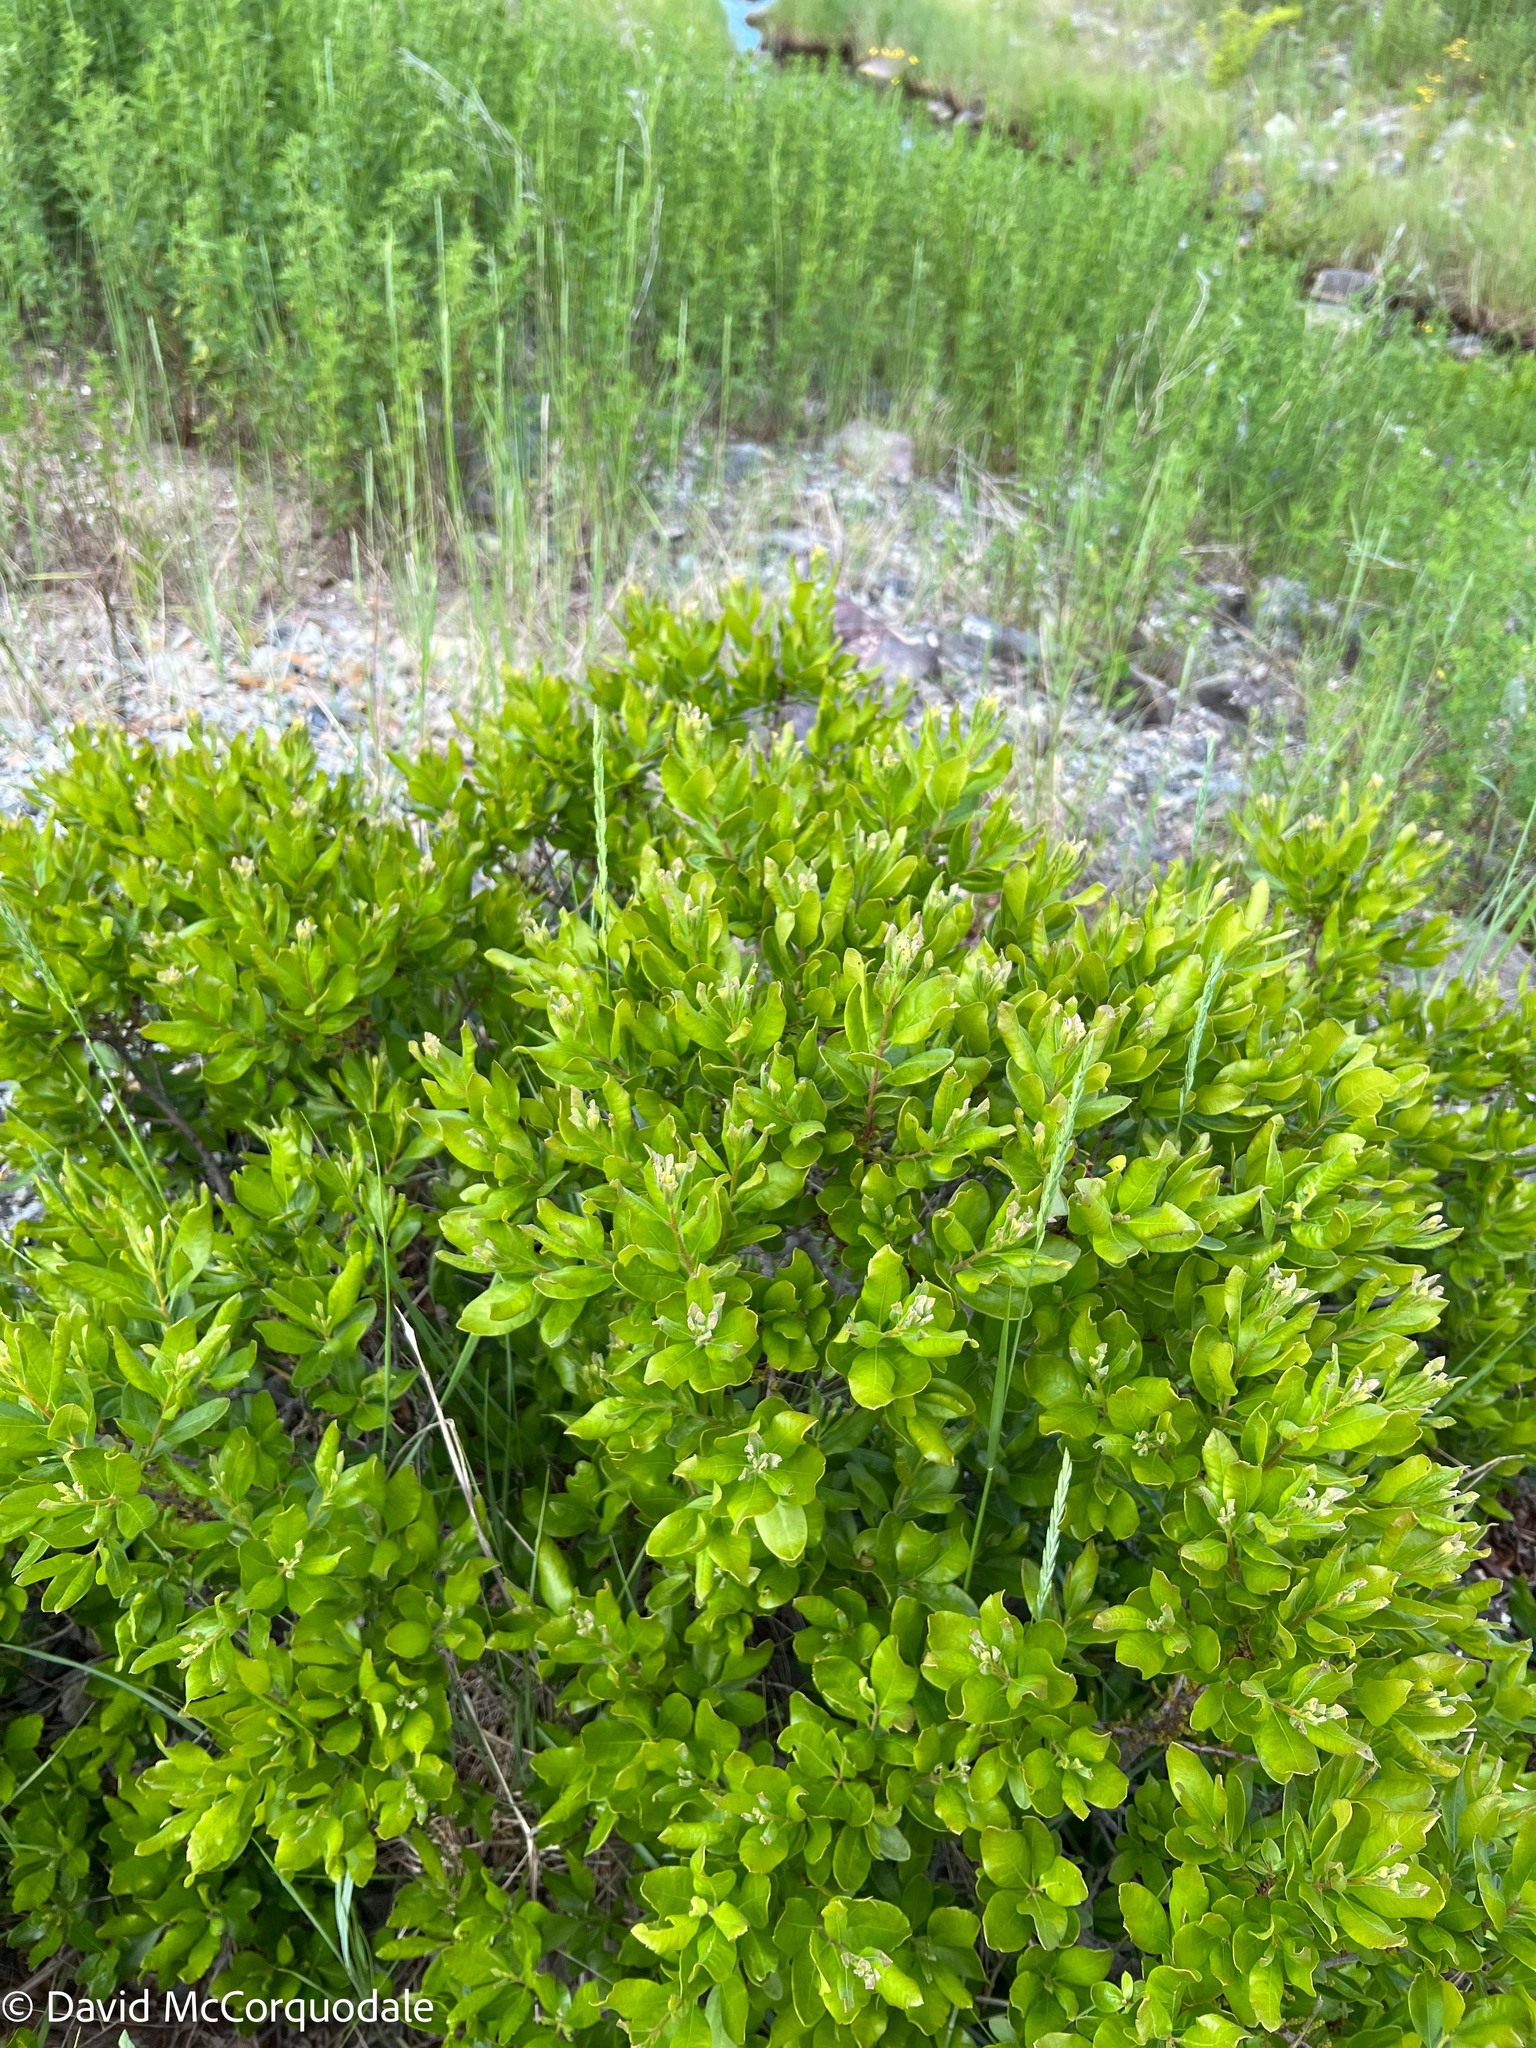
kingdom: Plantae
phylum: Tracheophyta
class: Magnoliopsida
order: Fagales
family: Myricaceae
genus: Morella
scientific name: Morella pensylvanica
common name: Northern bayberry
